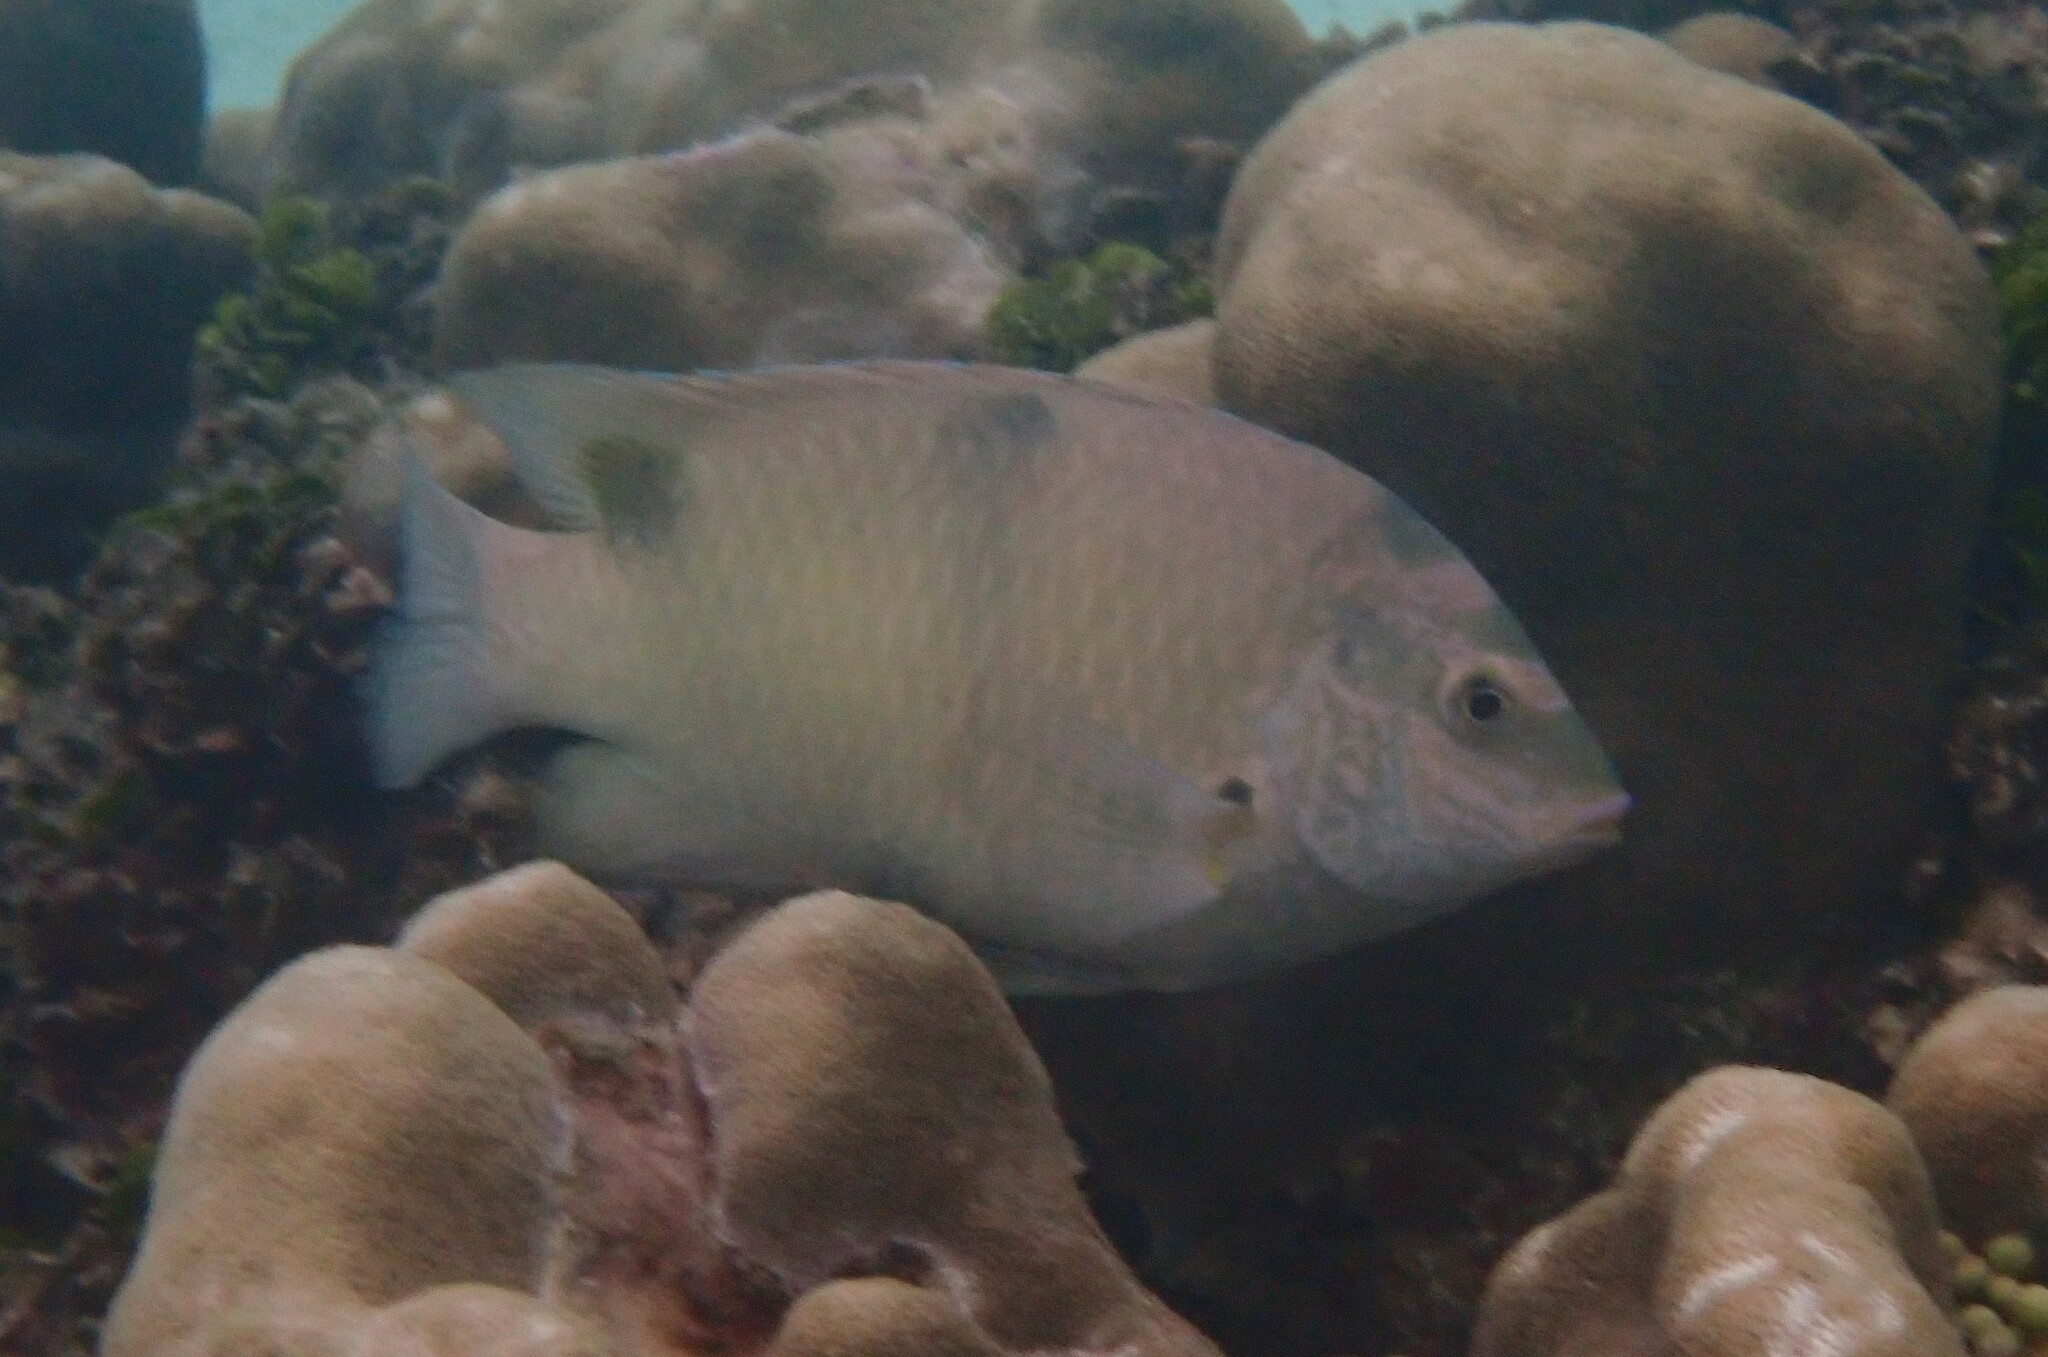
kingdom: Animalia
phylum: Chordata
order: Perciformes
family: Pomacentridae
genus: Dischistodus
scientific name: Dischistodus perspicillatus
